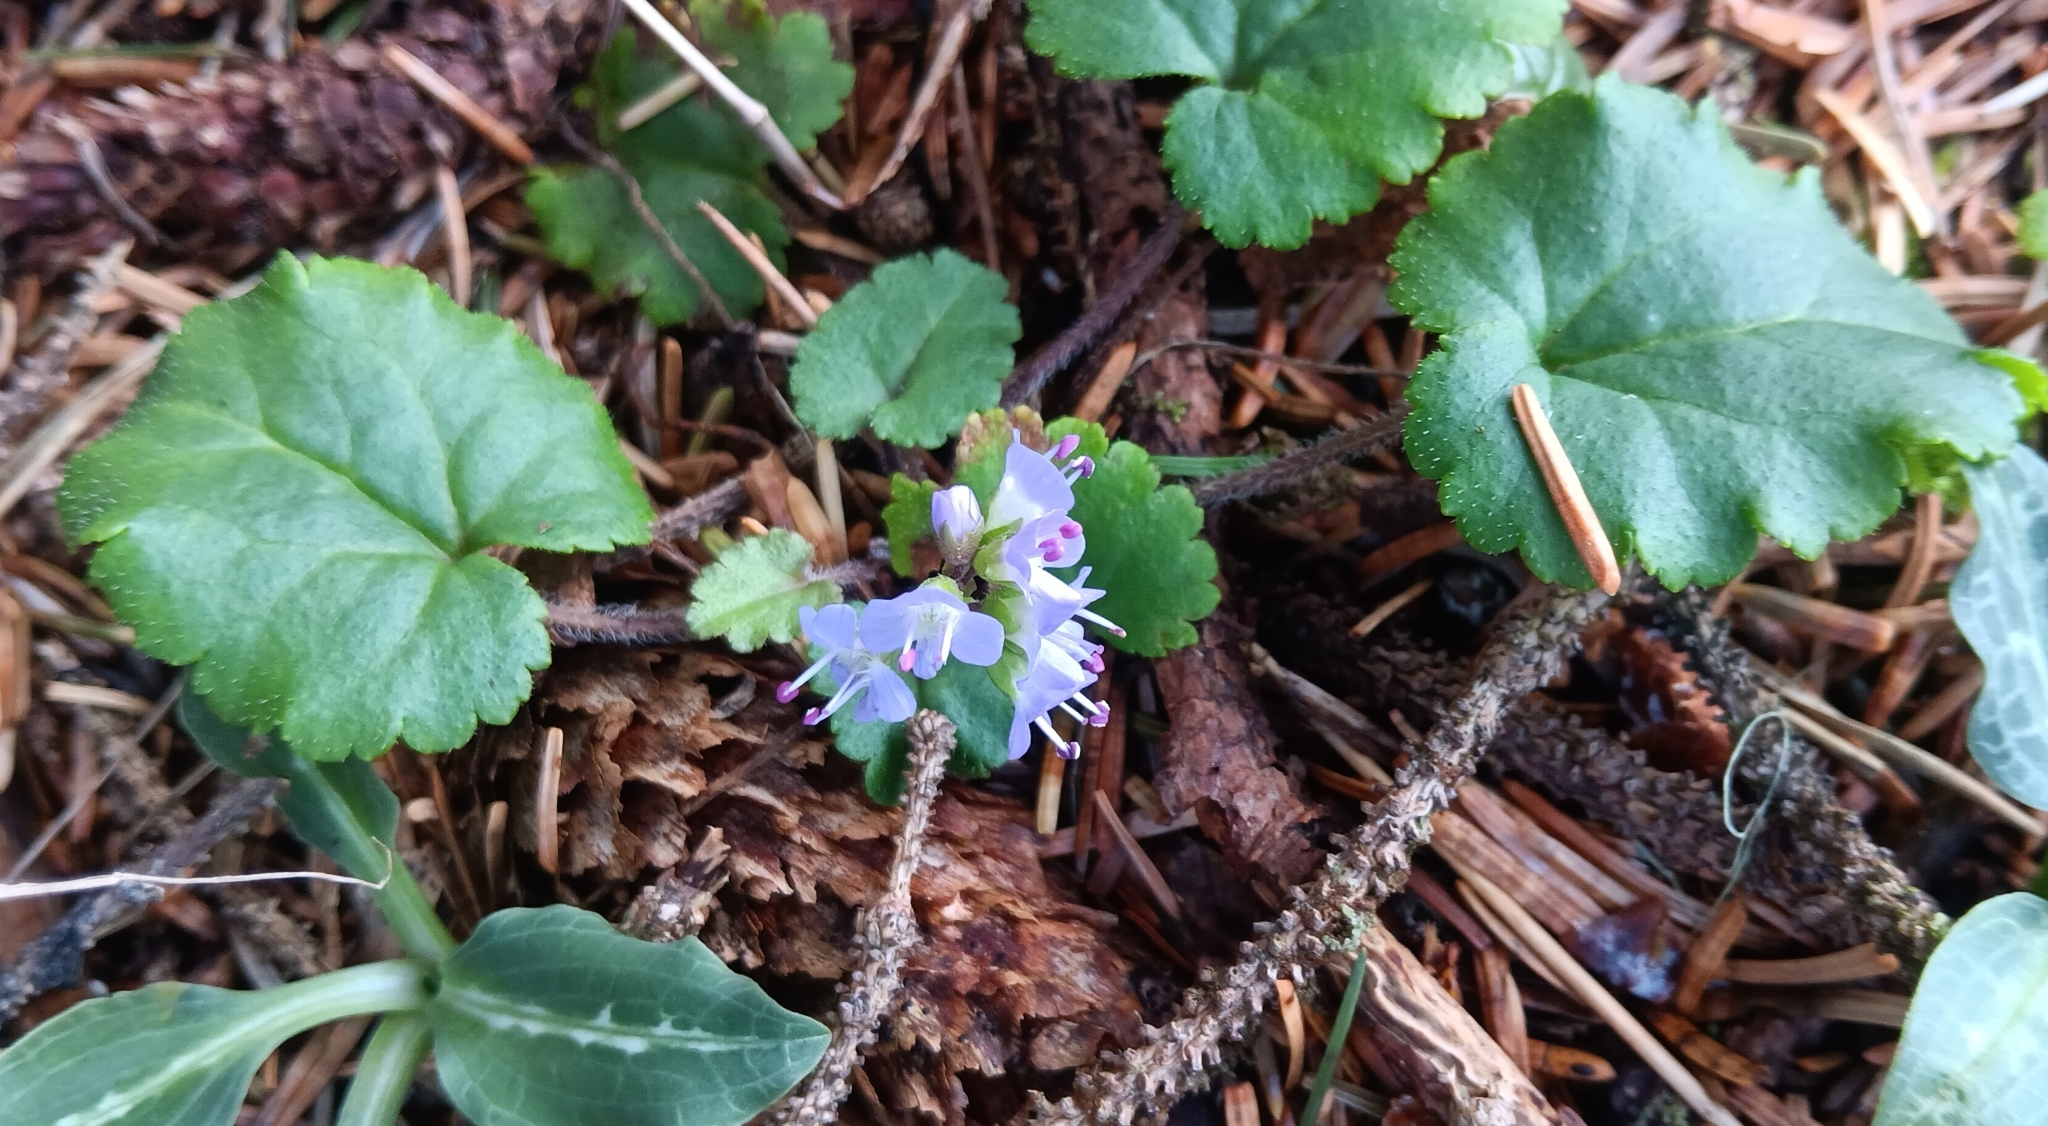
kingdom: Plantae
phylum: Tracheophyta
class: Magnoliopsida
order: Lamiales
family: Plantaginaceae
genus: Synthyris
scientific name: Synthyris reniformis
